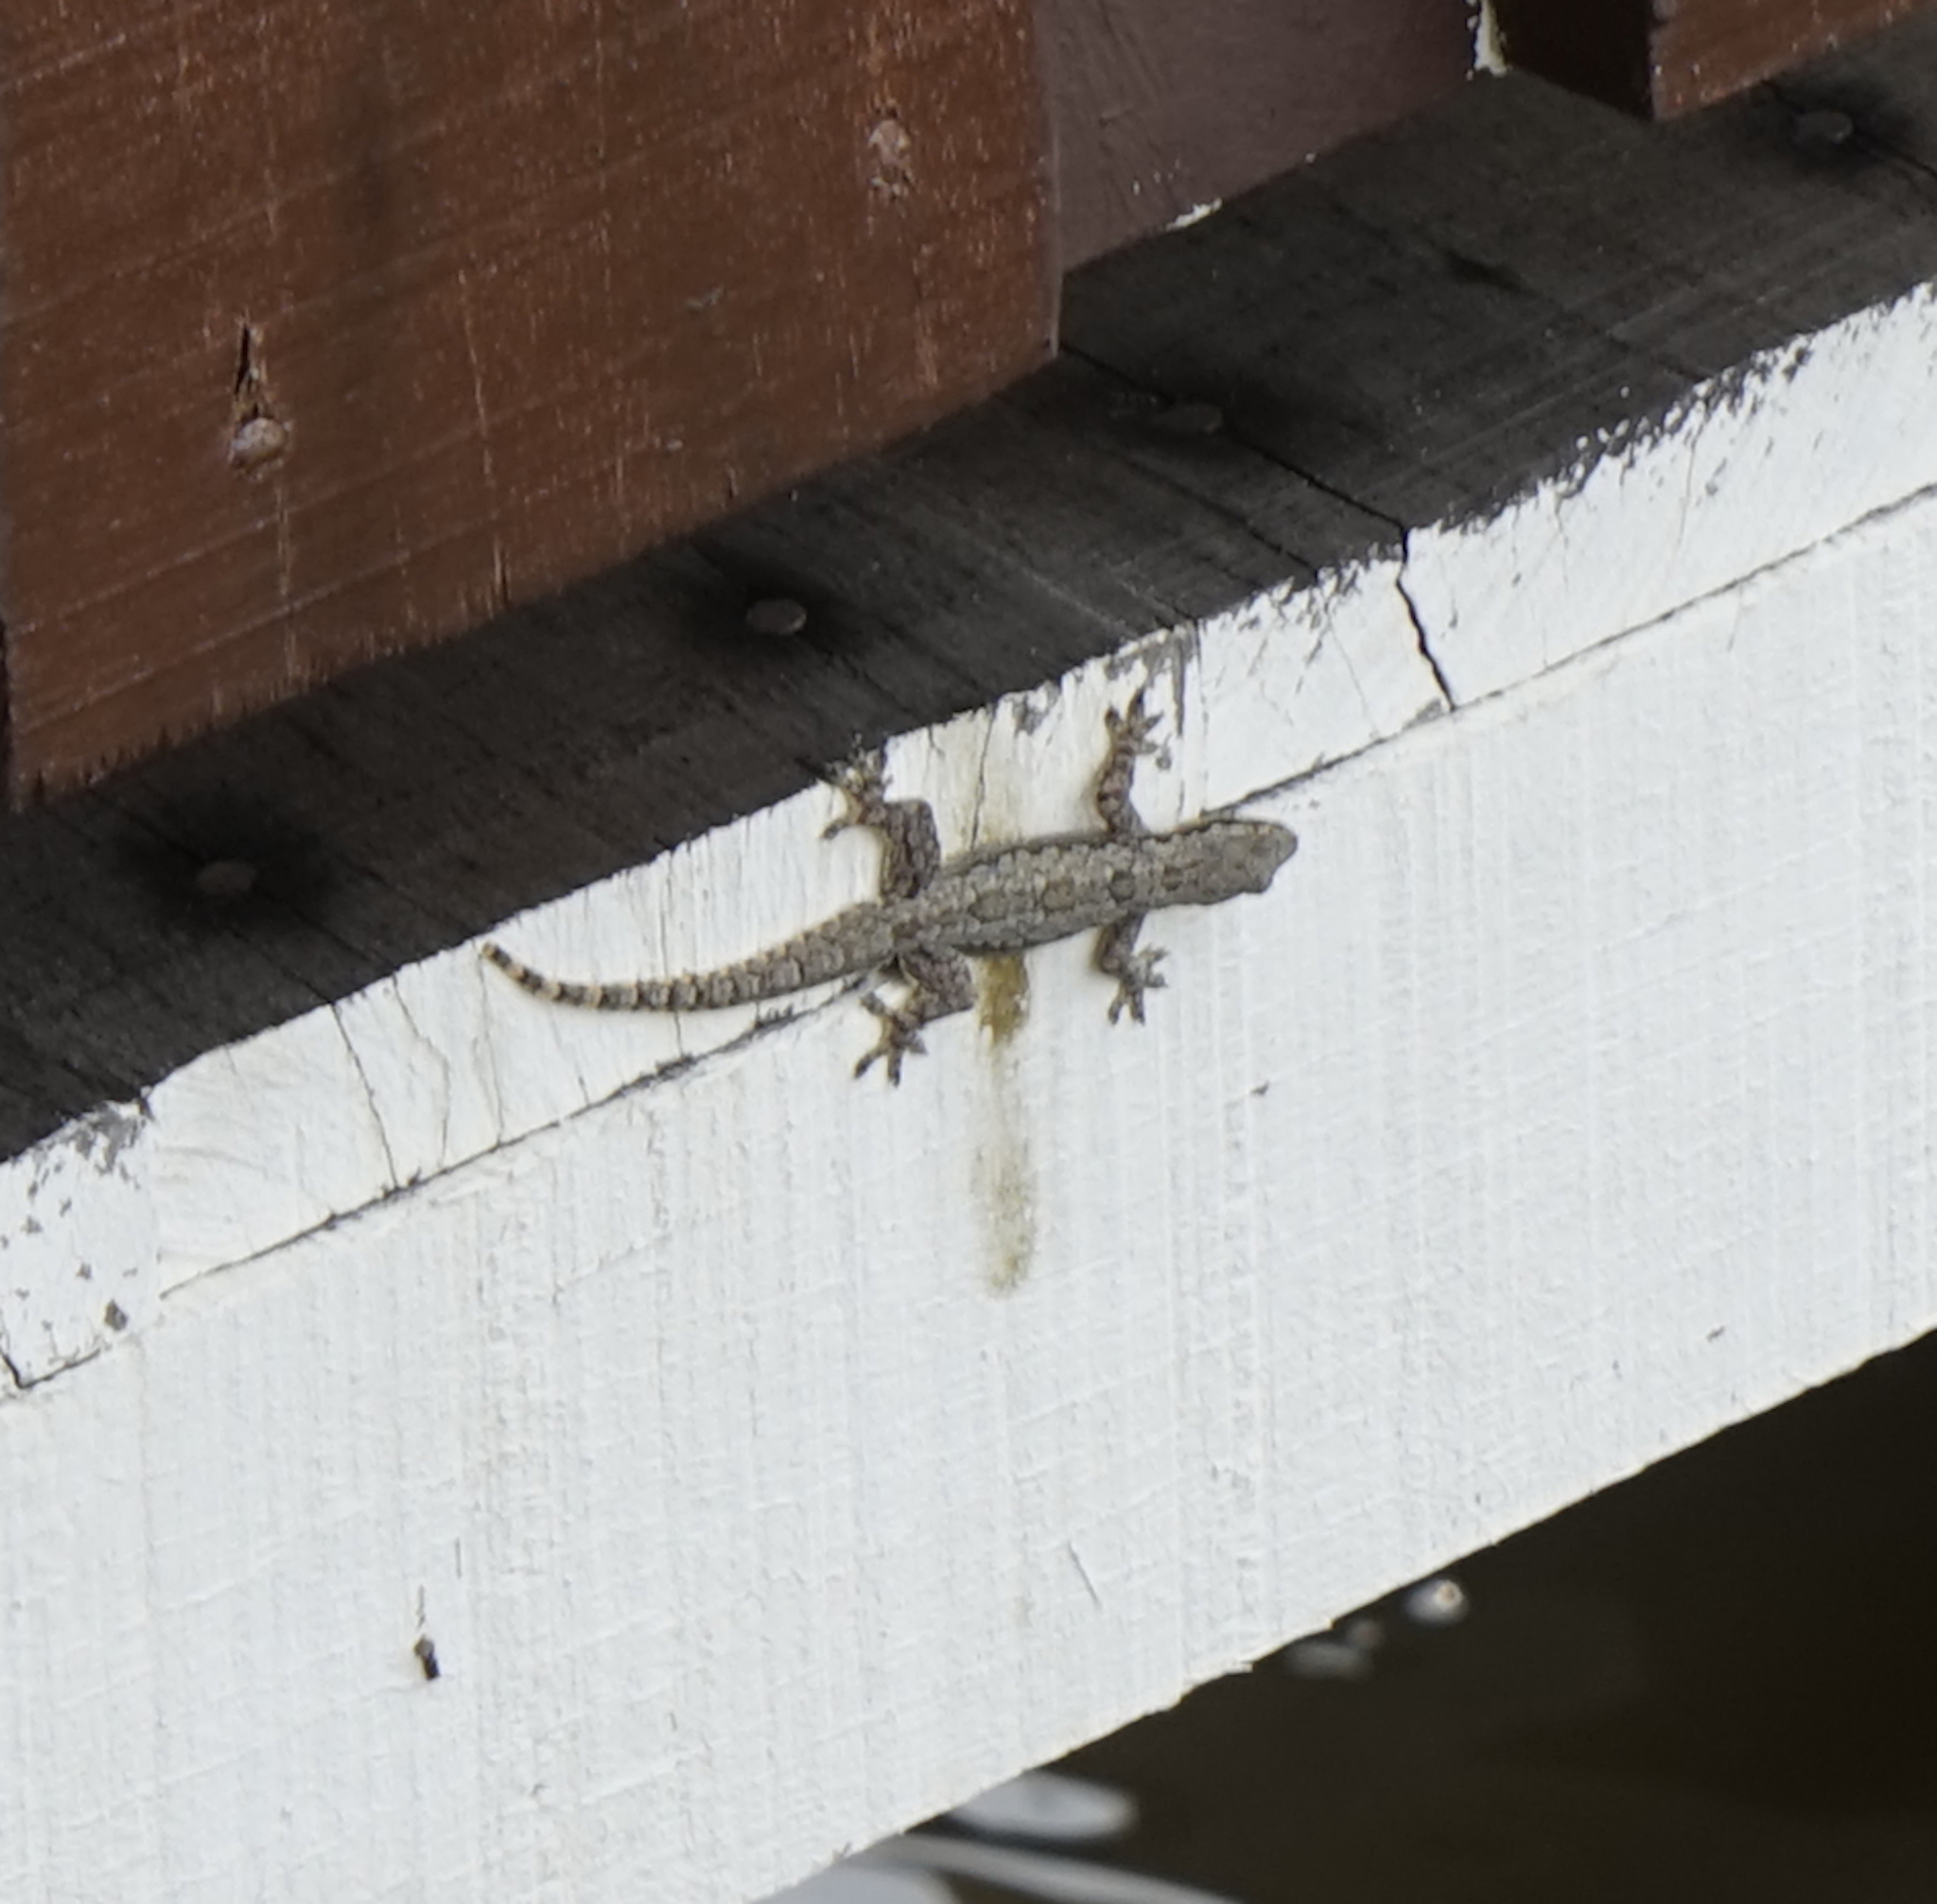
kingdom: Animalia
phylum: Chordata
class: Squamata
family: Gekkonidae
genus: Hemidactylus
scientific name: Hemidactylus platyurus
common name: Flat-tailed house gecko
